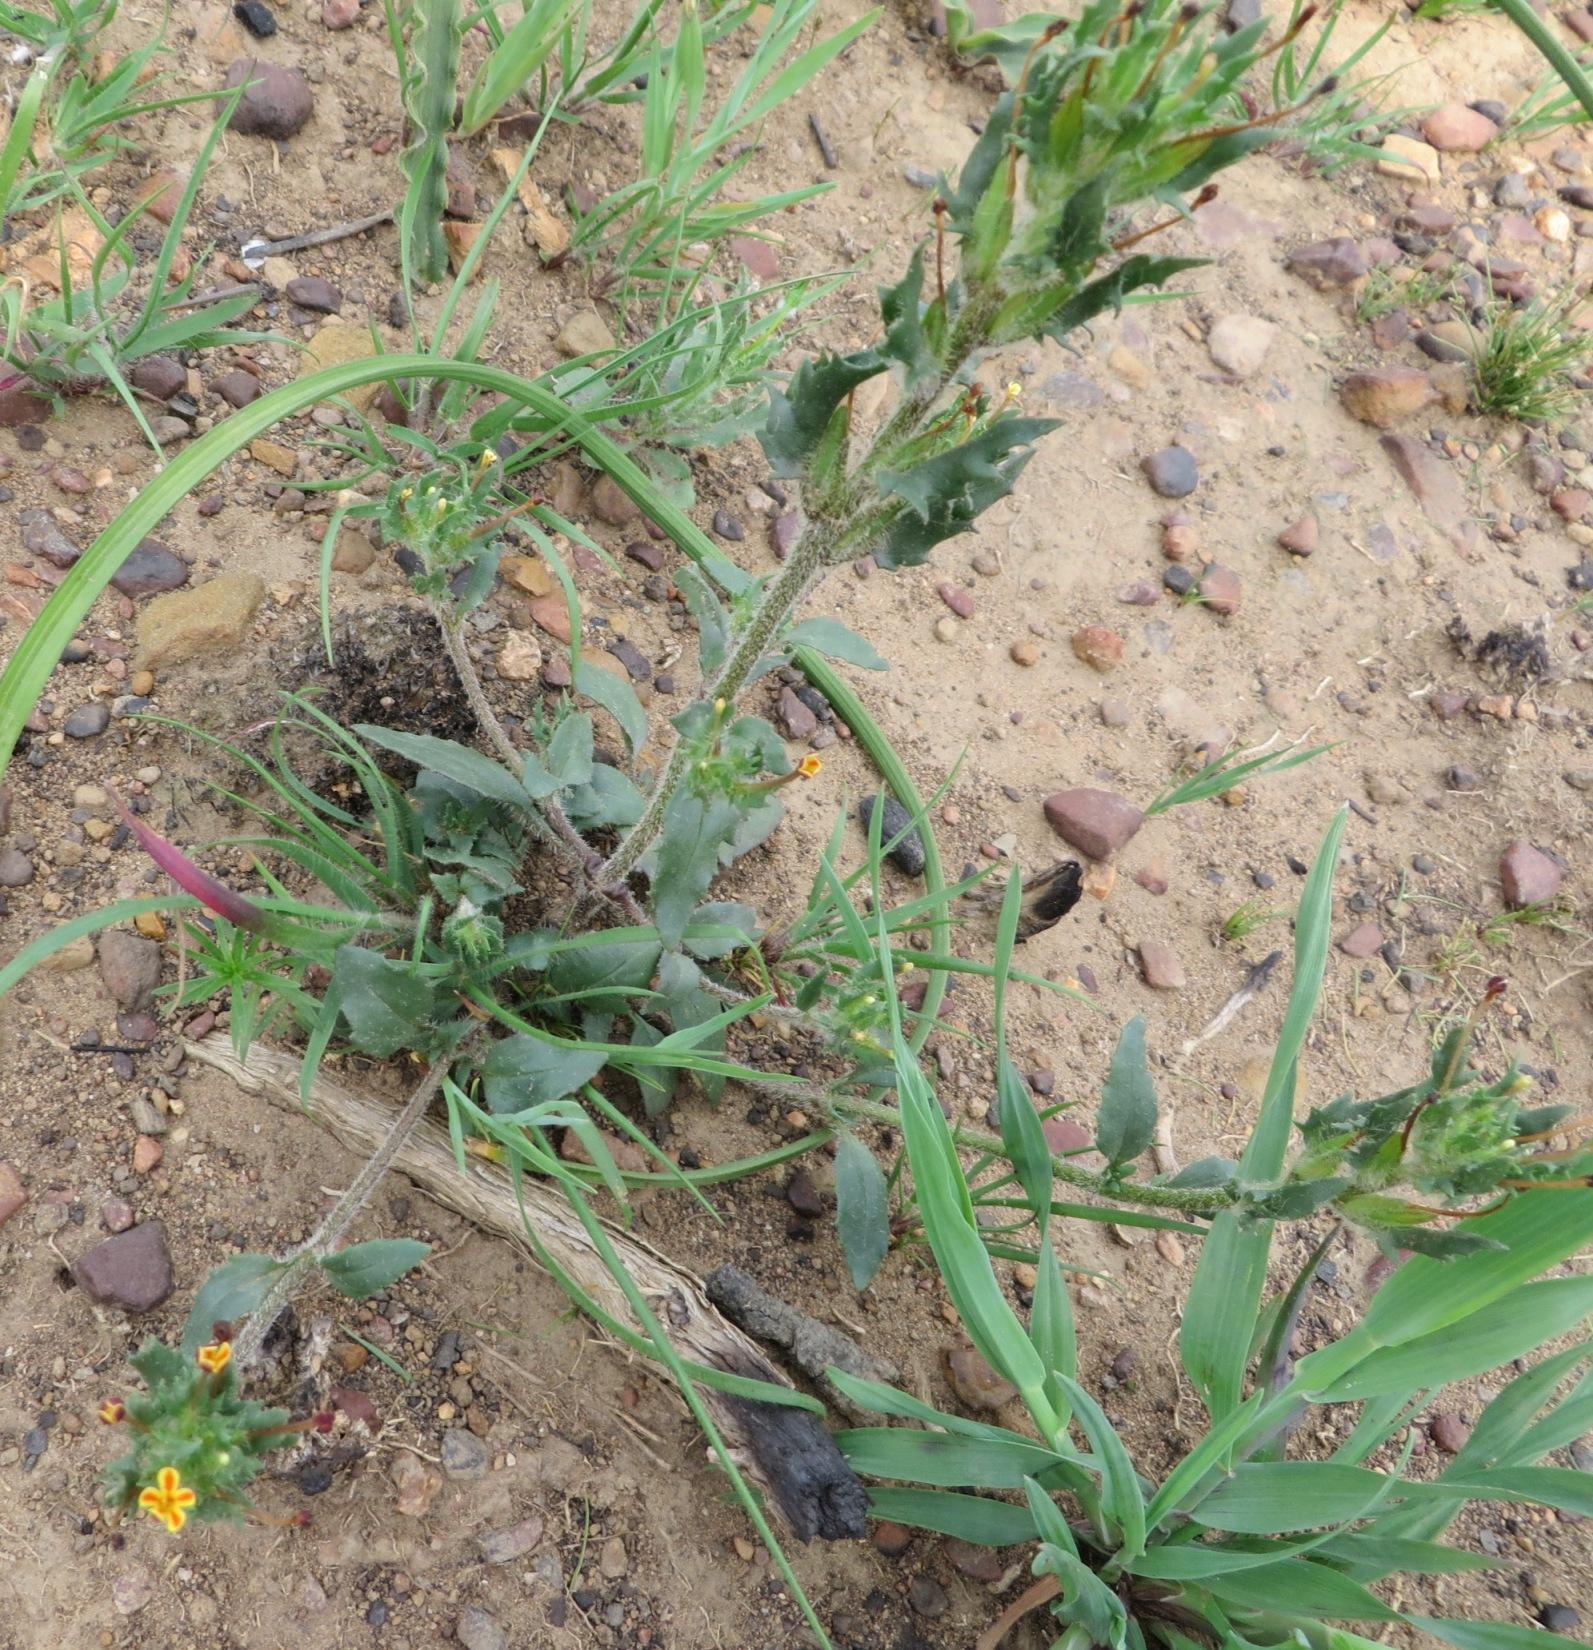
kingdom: Plantae
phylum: Tracheophyta
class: Magnoliopsida
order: Lamiales
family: Scrophulariaceae
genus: Zaluzianskya
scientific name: Zaluzianskya divaricata
